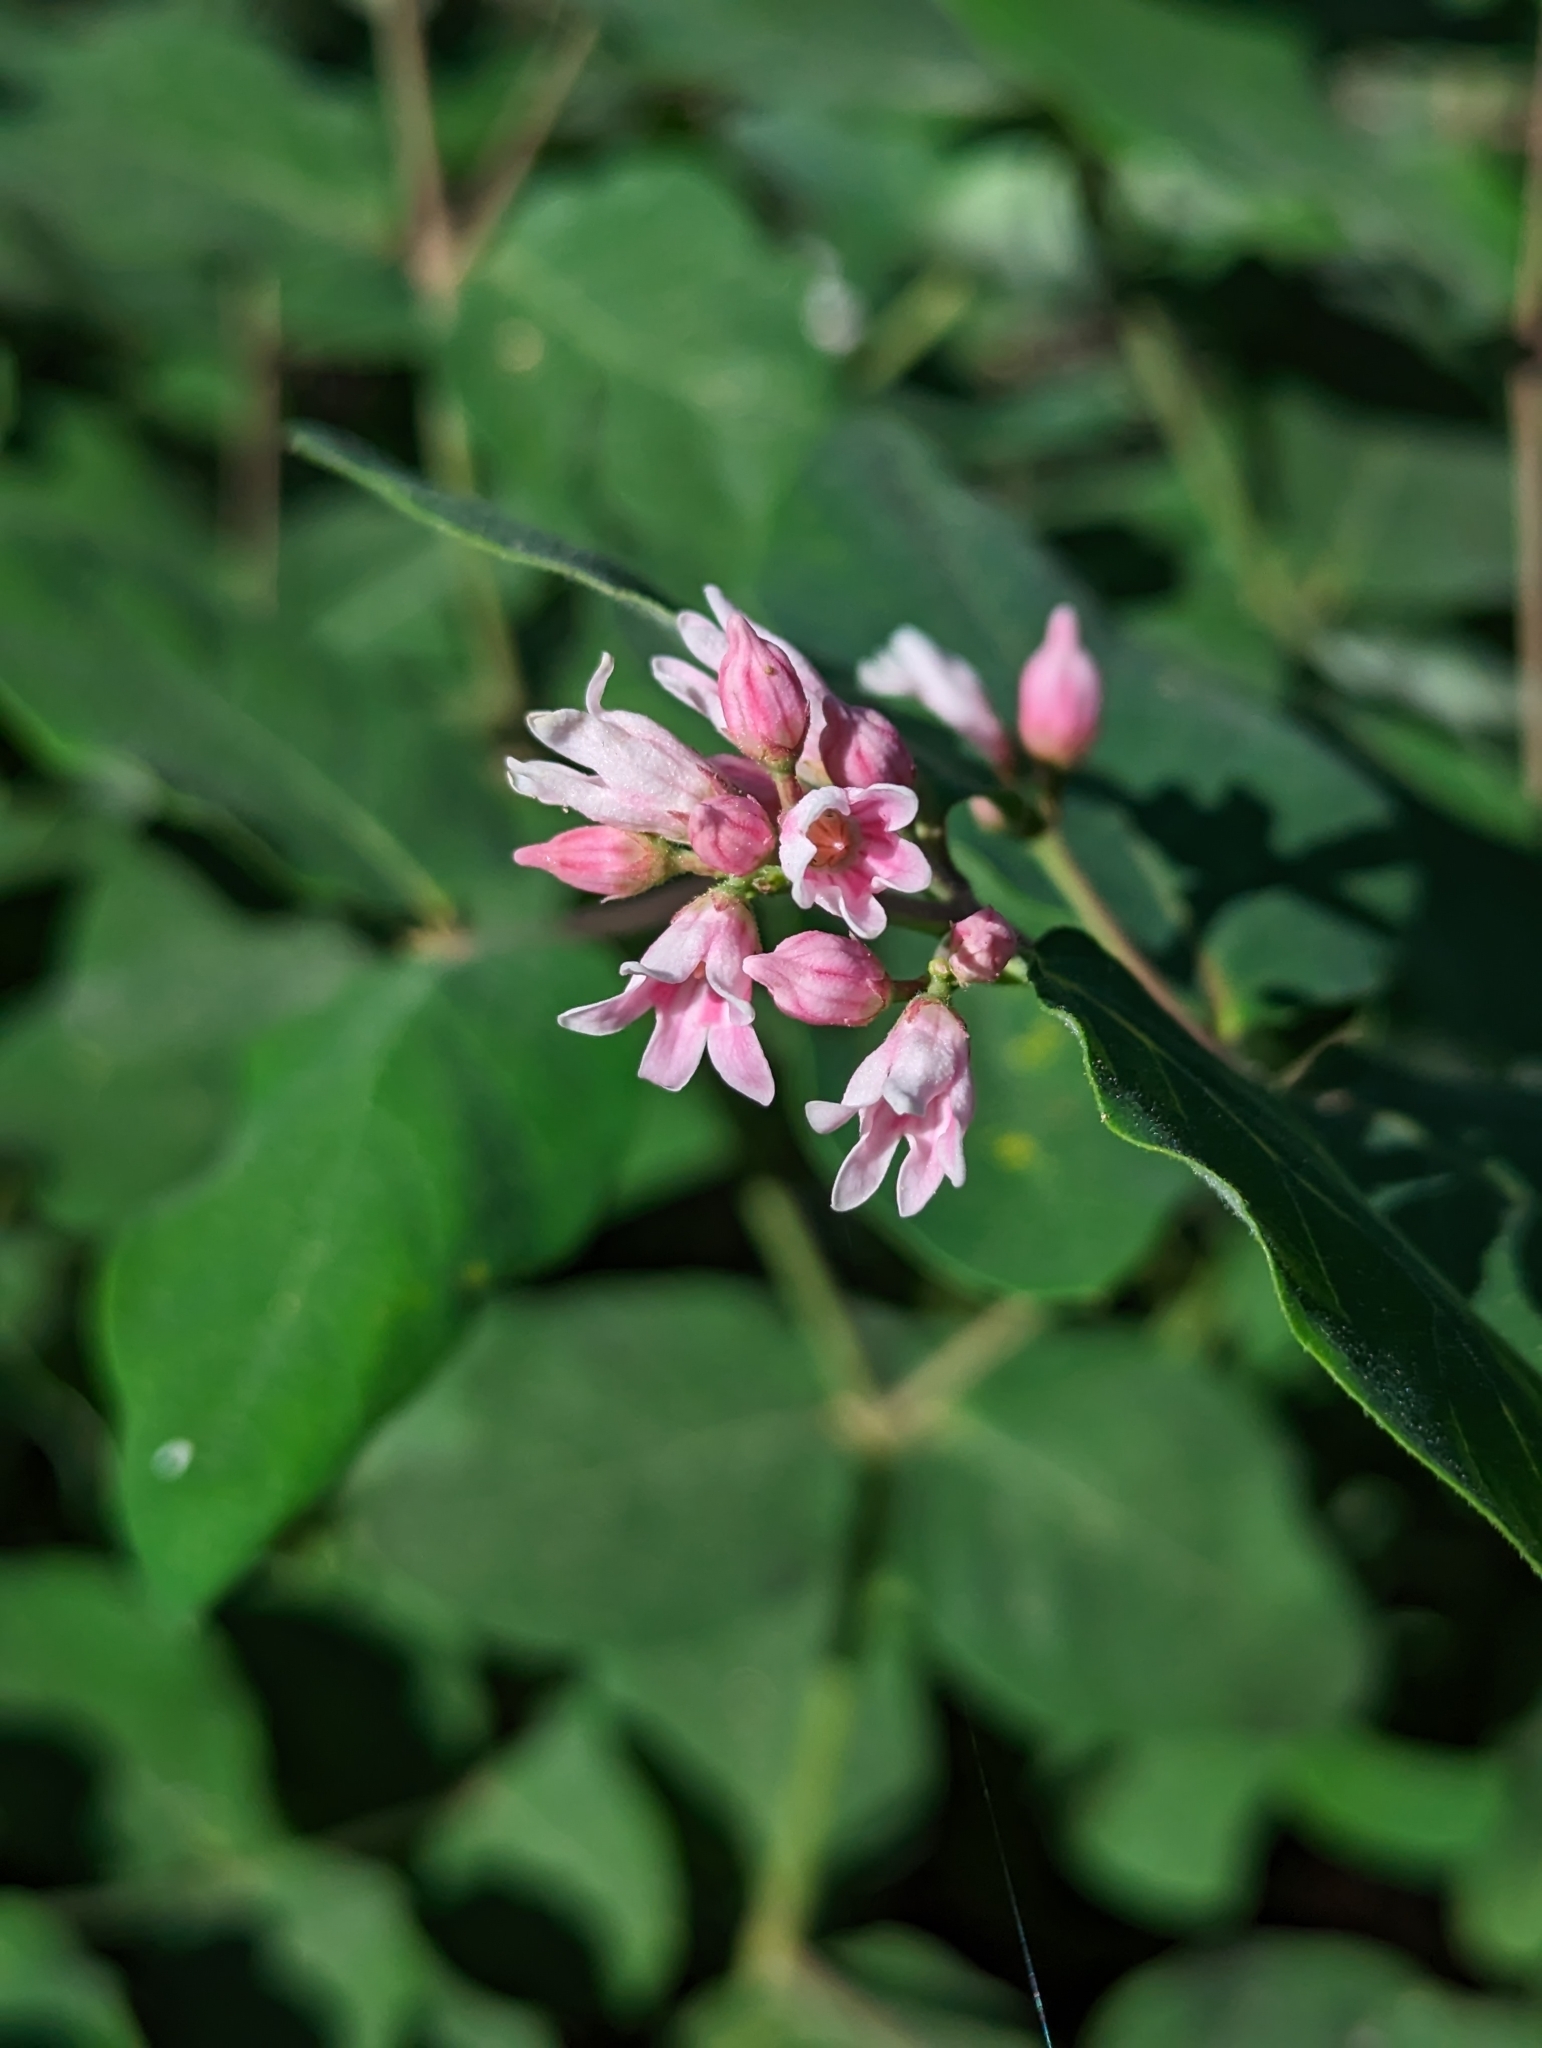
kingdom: Plantae
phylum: Tracheophyta
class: Magnoliopsida
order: Gentianales
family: Apocynaceae
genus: Apocynum
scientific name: Apocynum androsaemifolium
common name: Spreading dogbane
